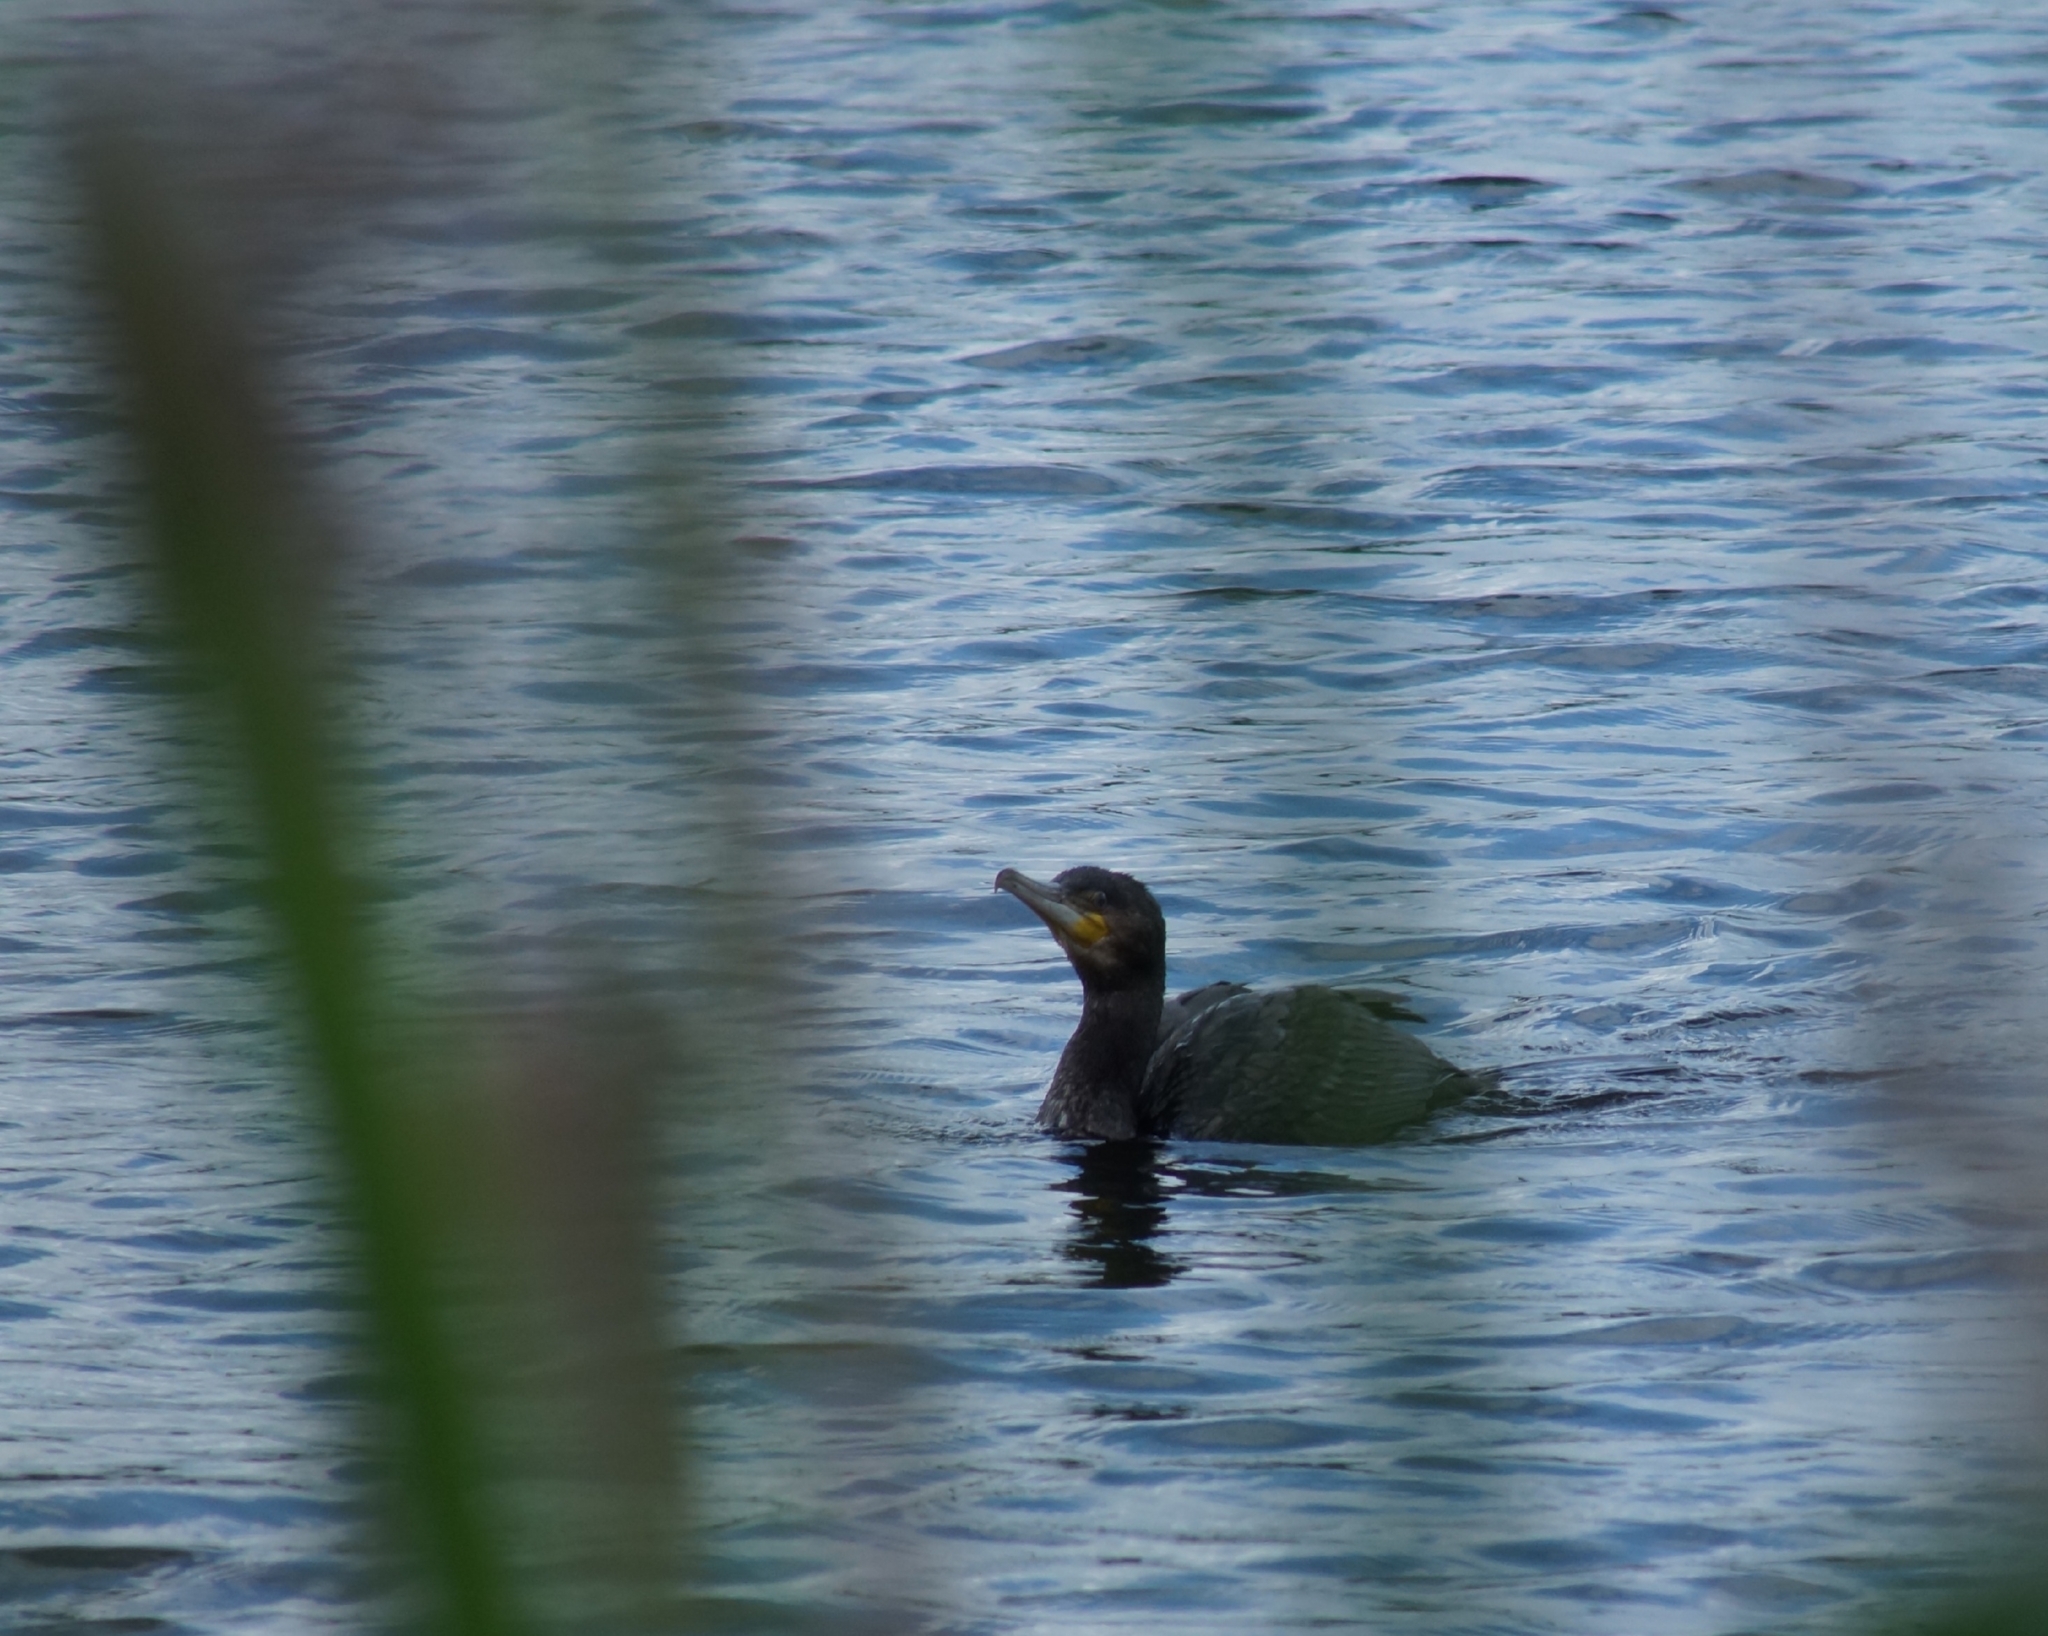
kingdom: Animalia
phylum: Chordata
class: Aves
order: Suliformes
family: Phalacrocoracidae
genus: Phalacrocorax
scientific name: Phalacrocorax carbo
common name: Great cormorant
